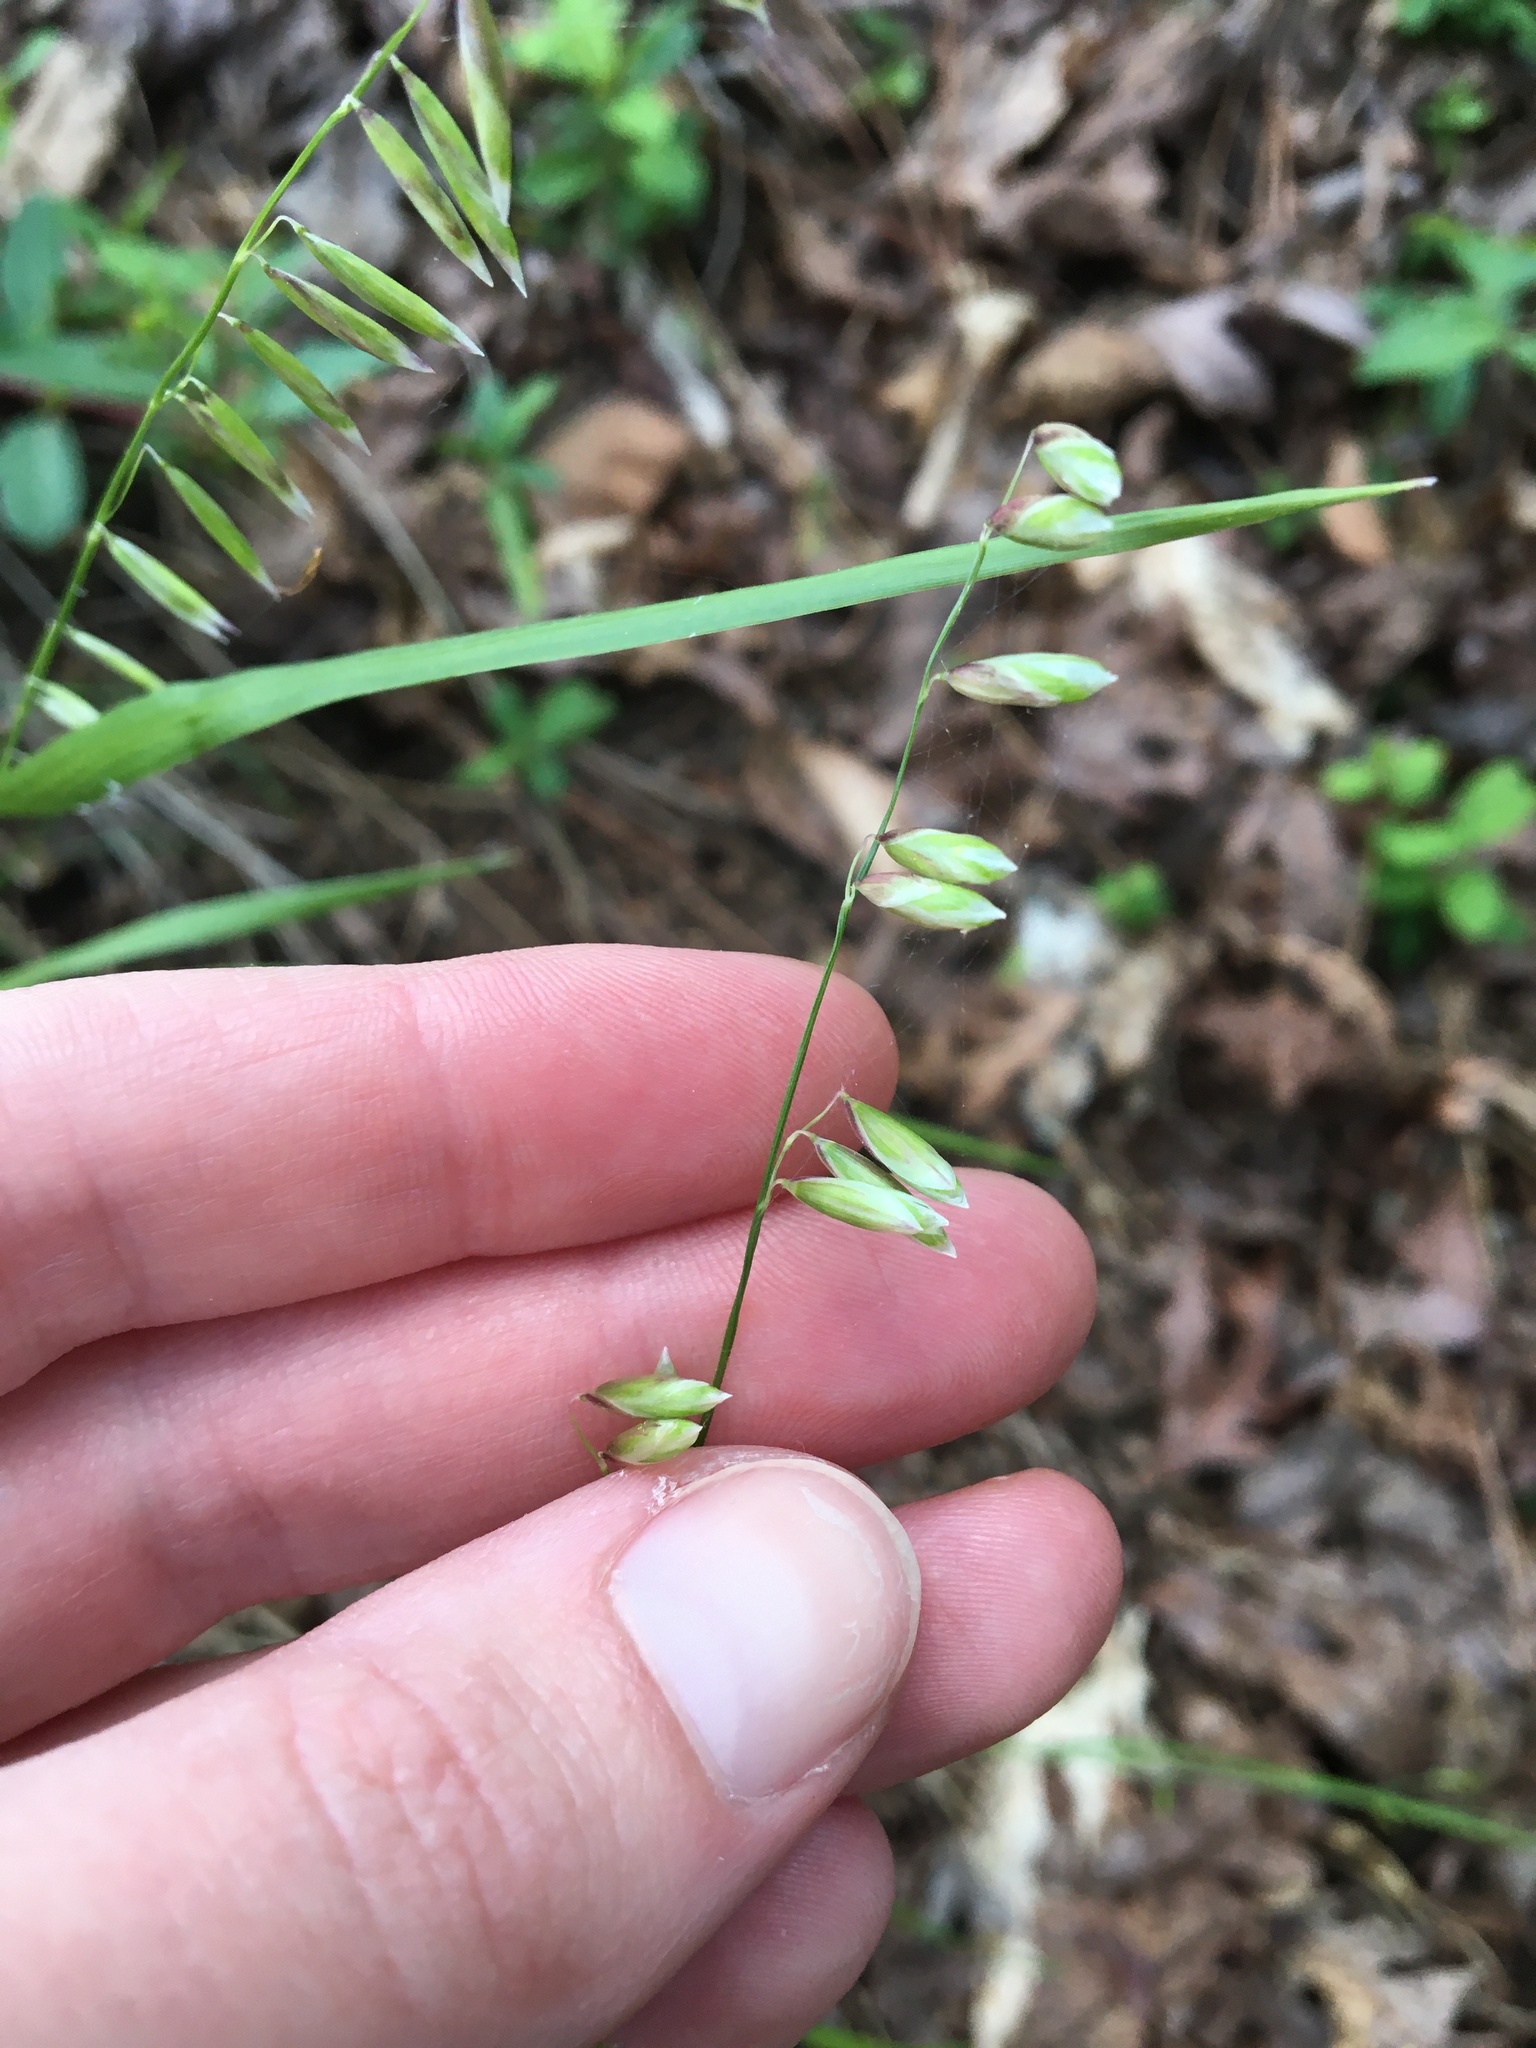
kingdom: Plantae
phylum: Tracheophyta
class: Liliopsida
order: Poales
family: Poaceae
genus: Melica
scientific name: Melica mutica
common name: Two-flower melic
